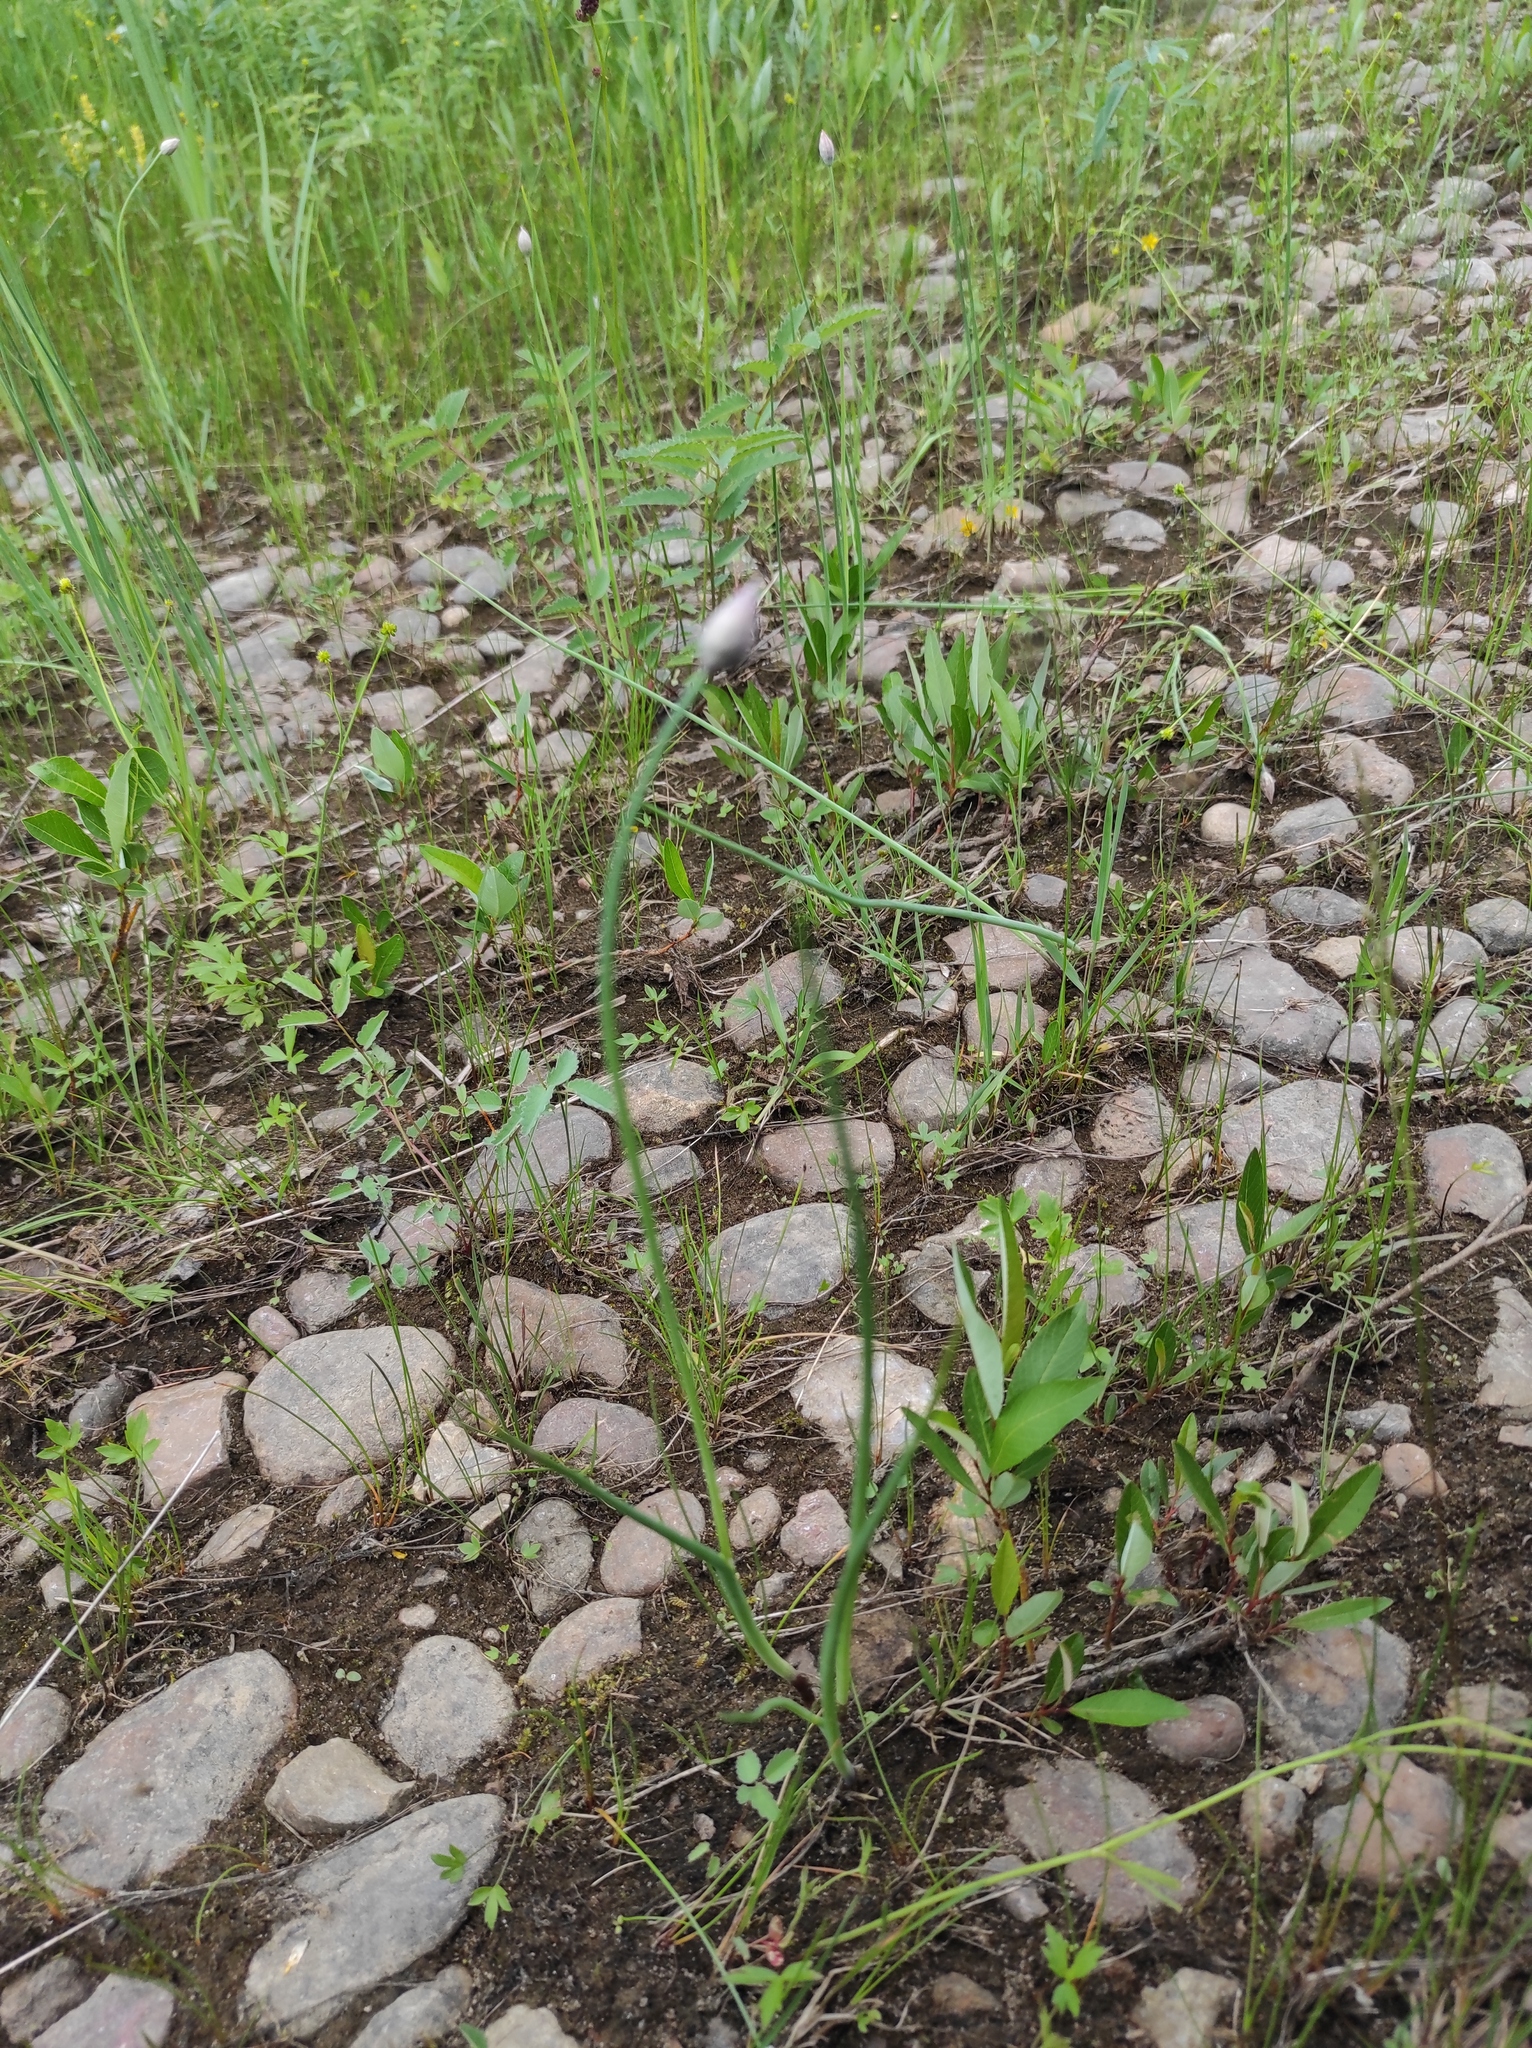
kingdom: Plantae
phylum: Tracheophyta
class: Liliopsida
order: Asparagales
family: Amaryllidaceae
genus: Allium
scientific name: Allium schoenoprasum
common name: Chives
